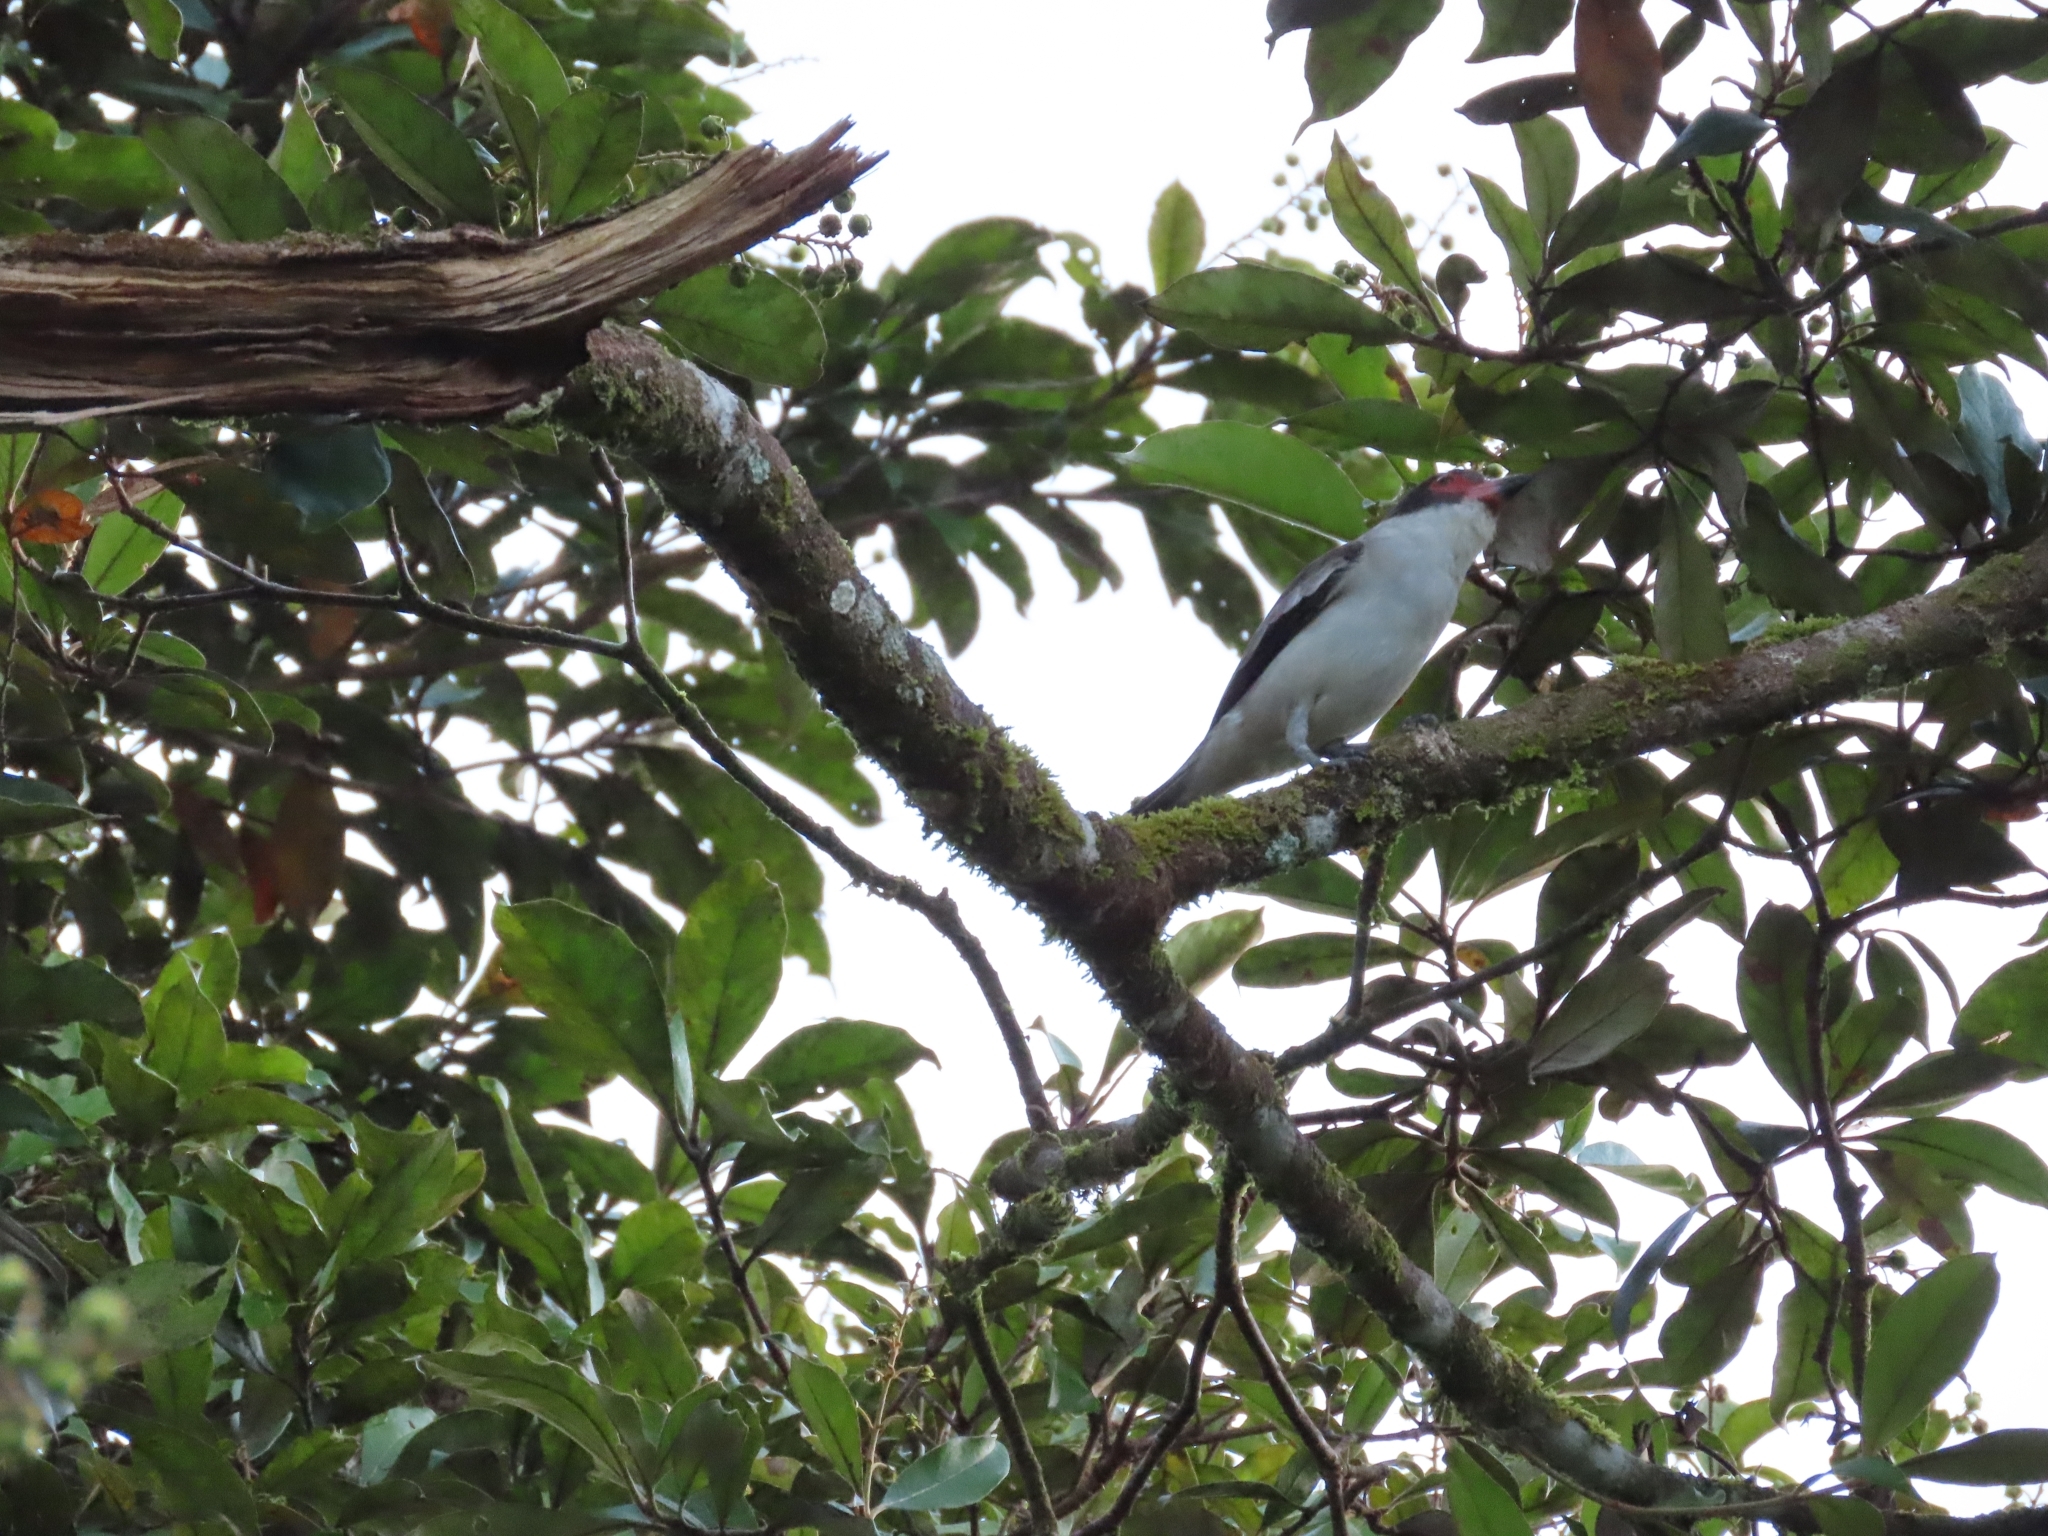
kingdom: Animalia
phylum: Chordata
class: Aves
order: Passeriformes
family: Cotingidae
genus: Tityra
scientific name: Tityra semifasciata
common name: Masked tityra
